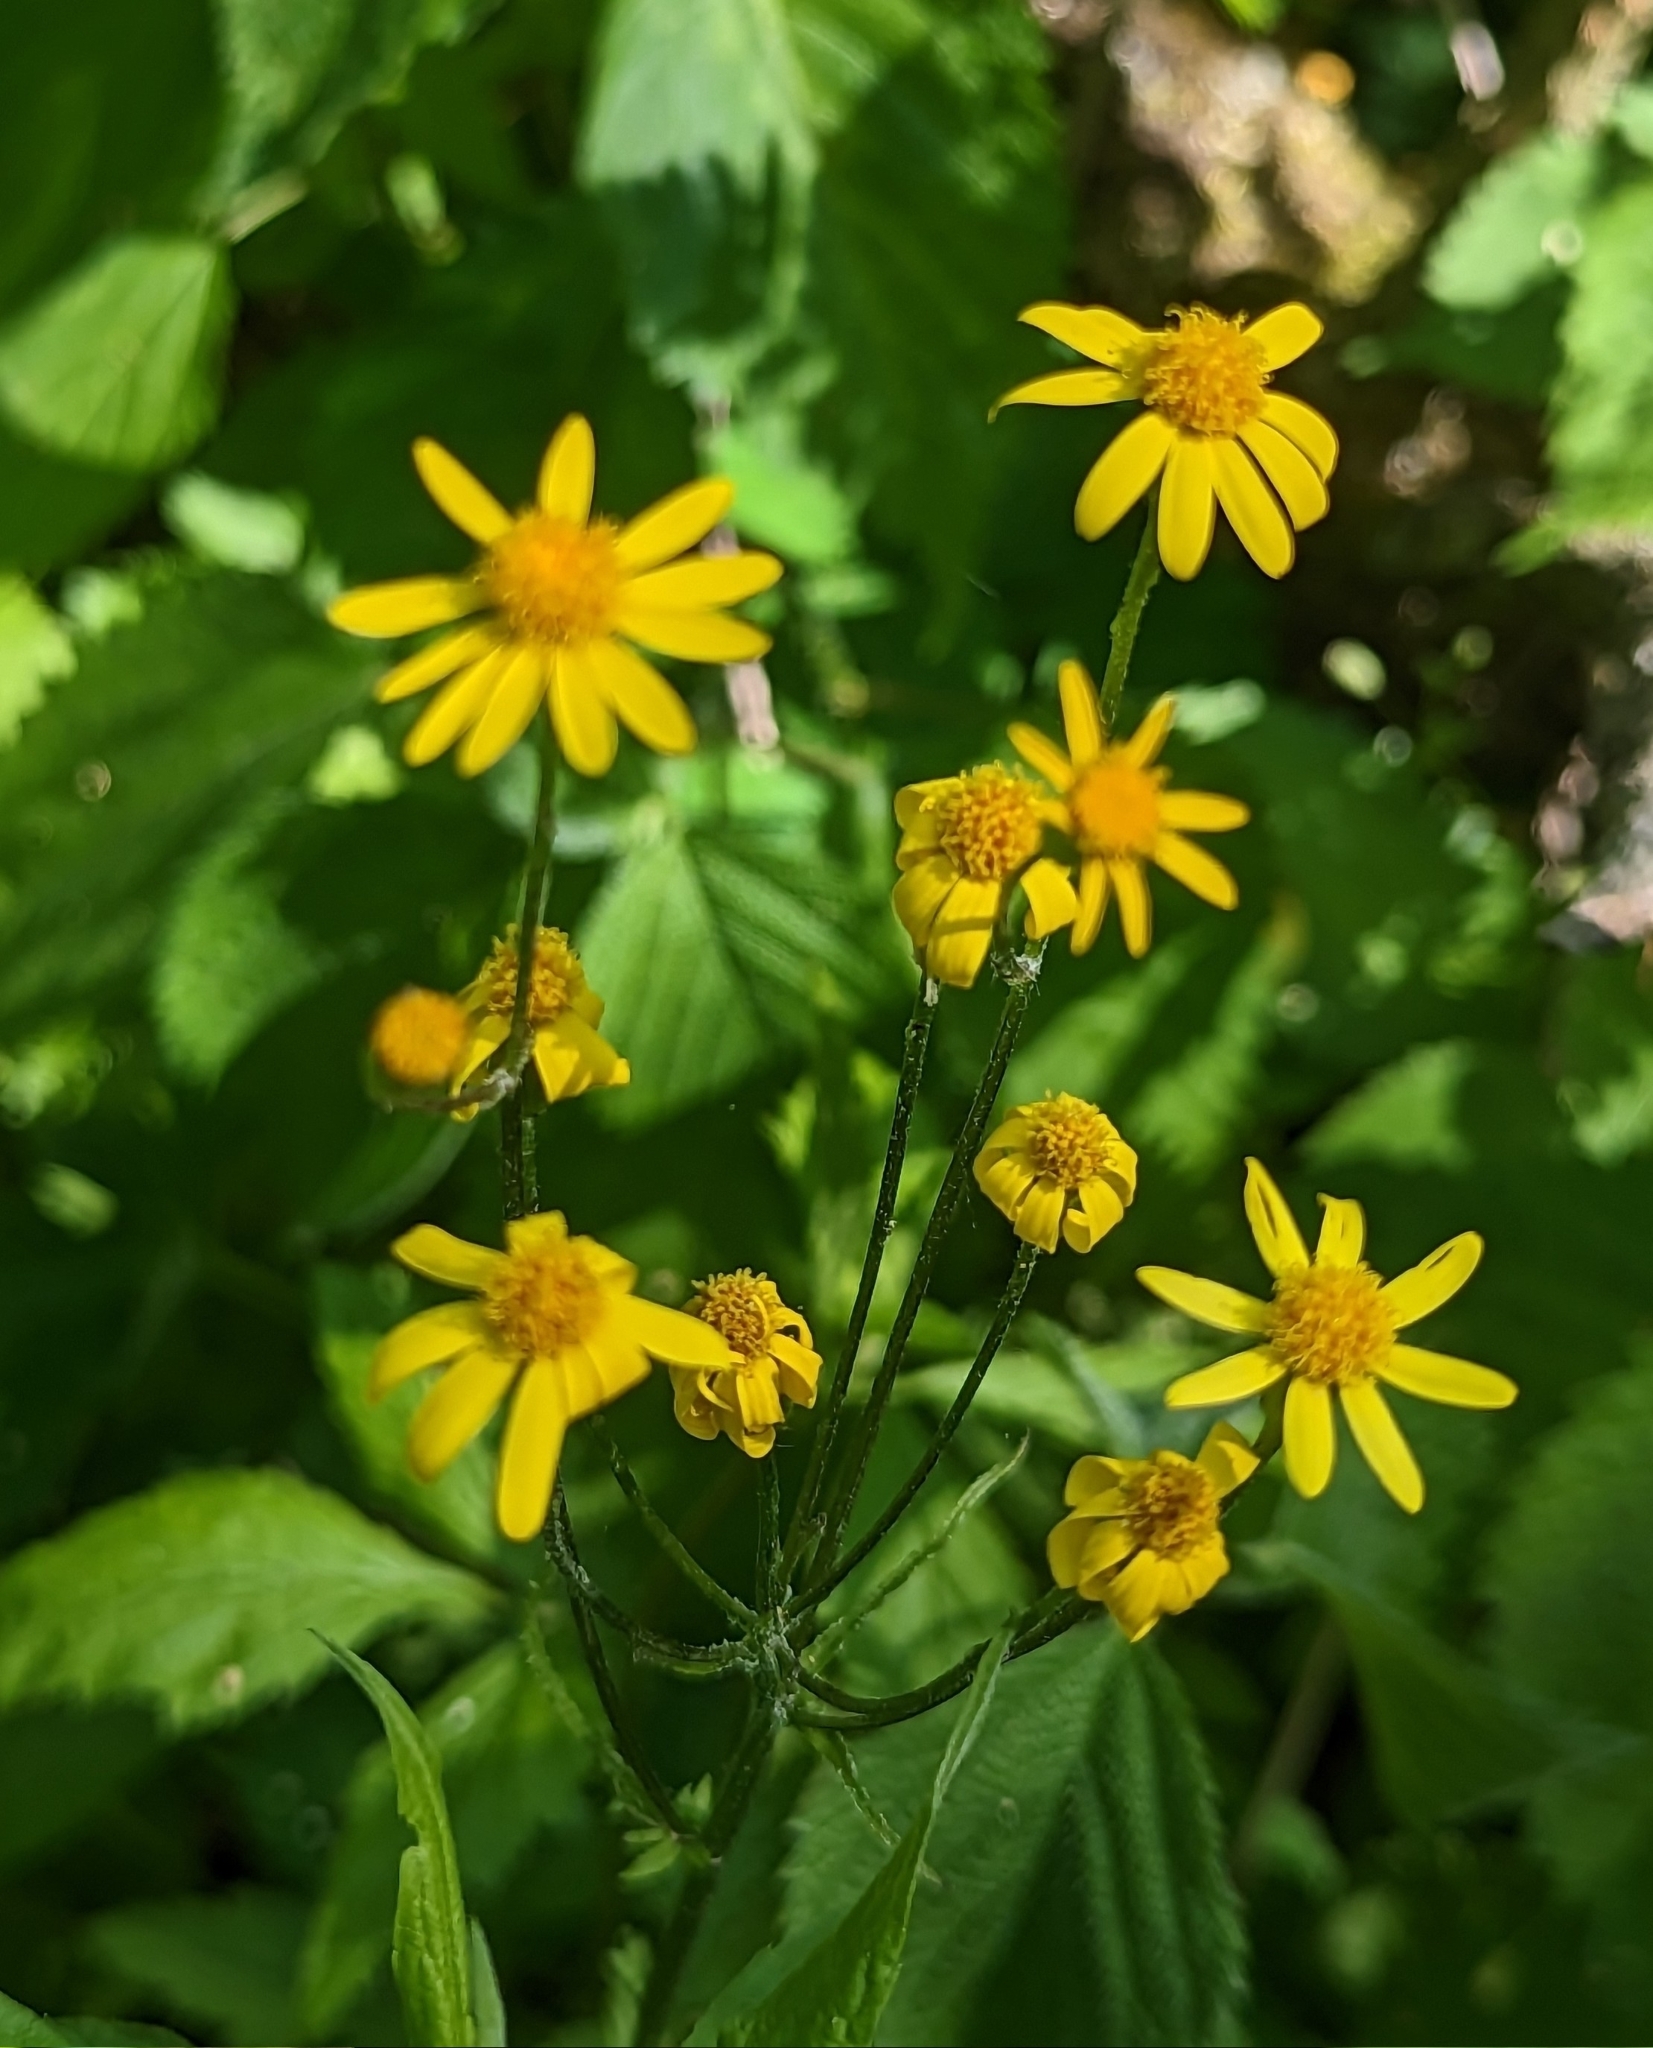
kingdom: Plantae
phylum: Tracheophyta
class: Magnoliopsida
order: Asterales
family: Asteraceae
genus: Packera
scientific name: Packera aurea
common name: Golden groundsel
